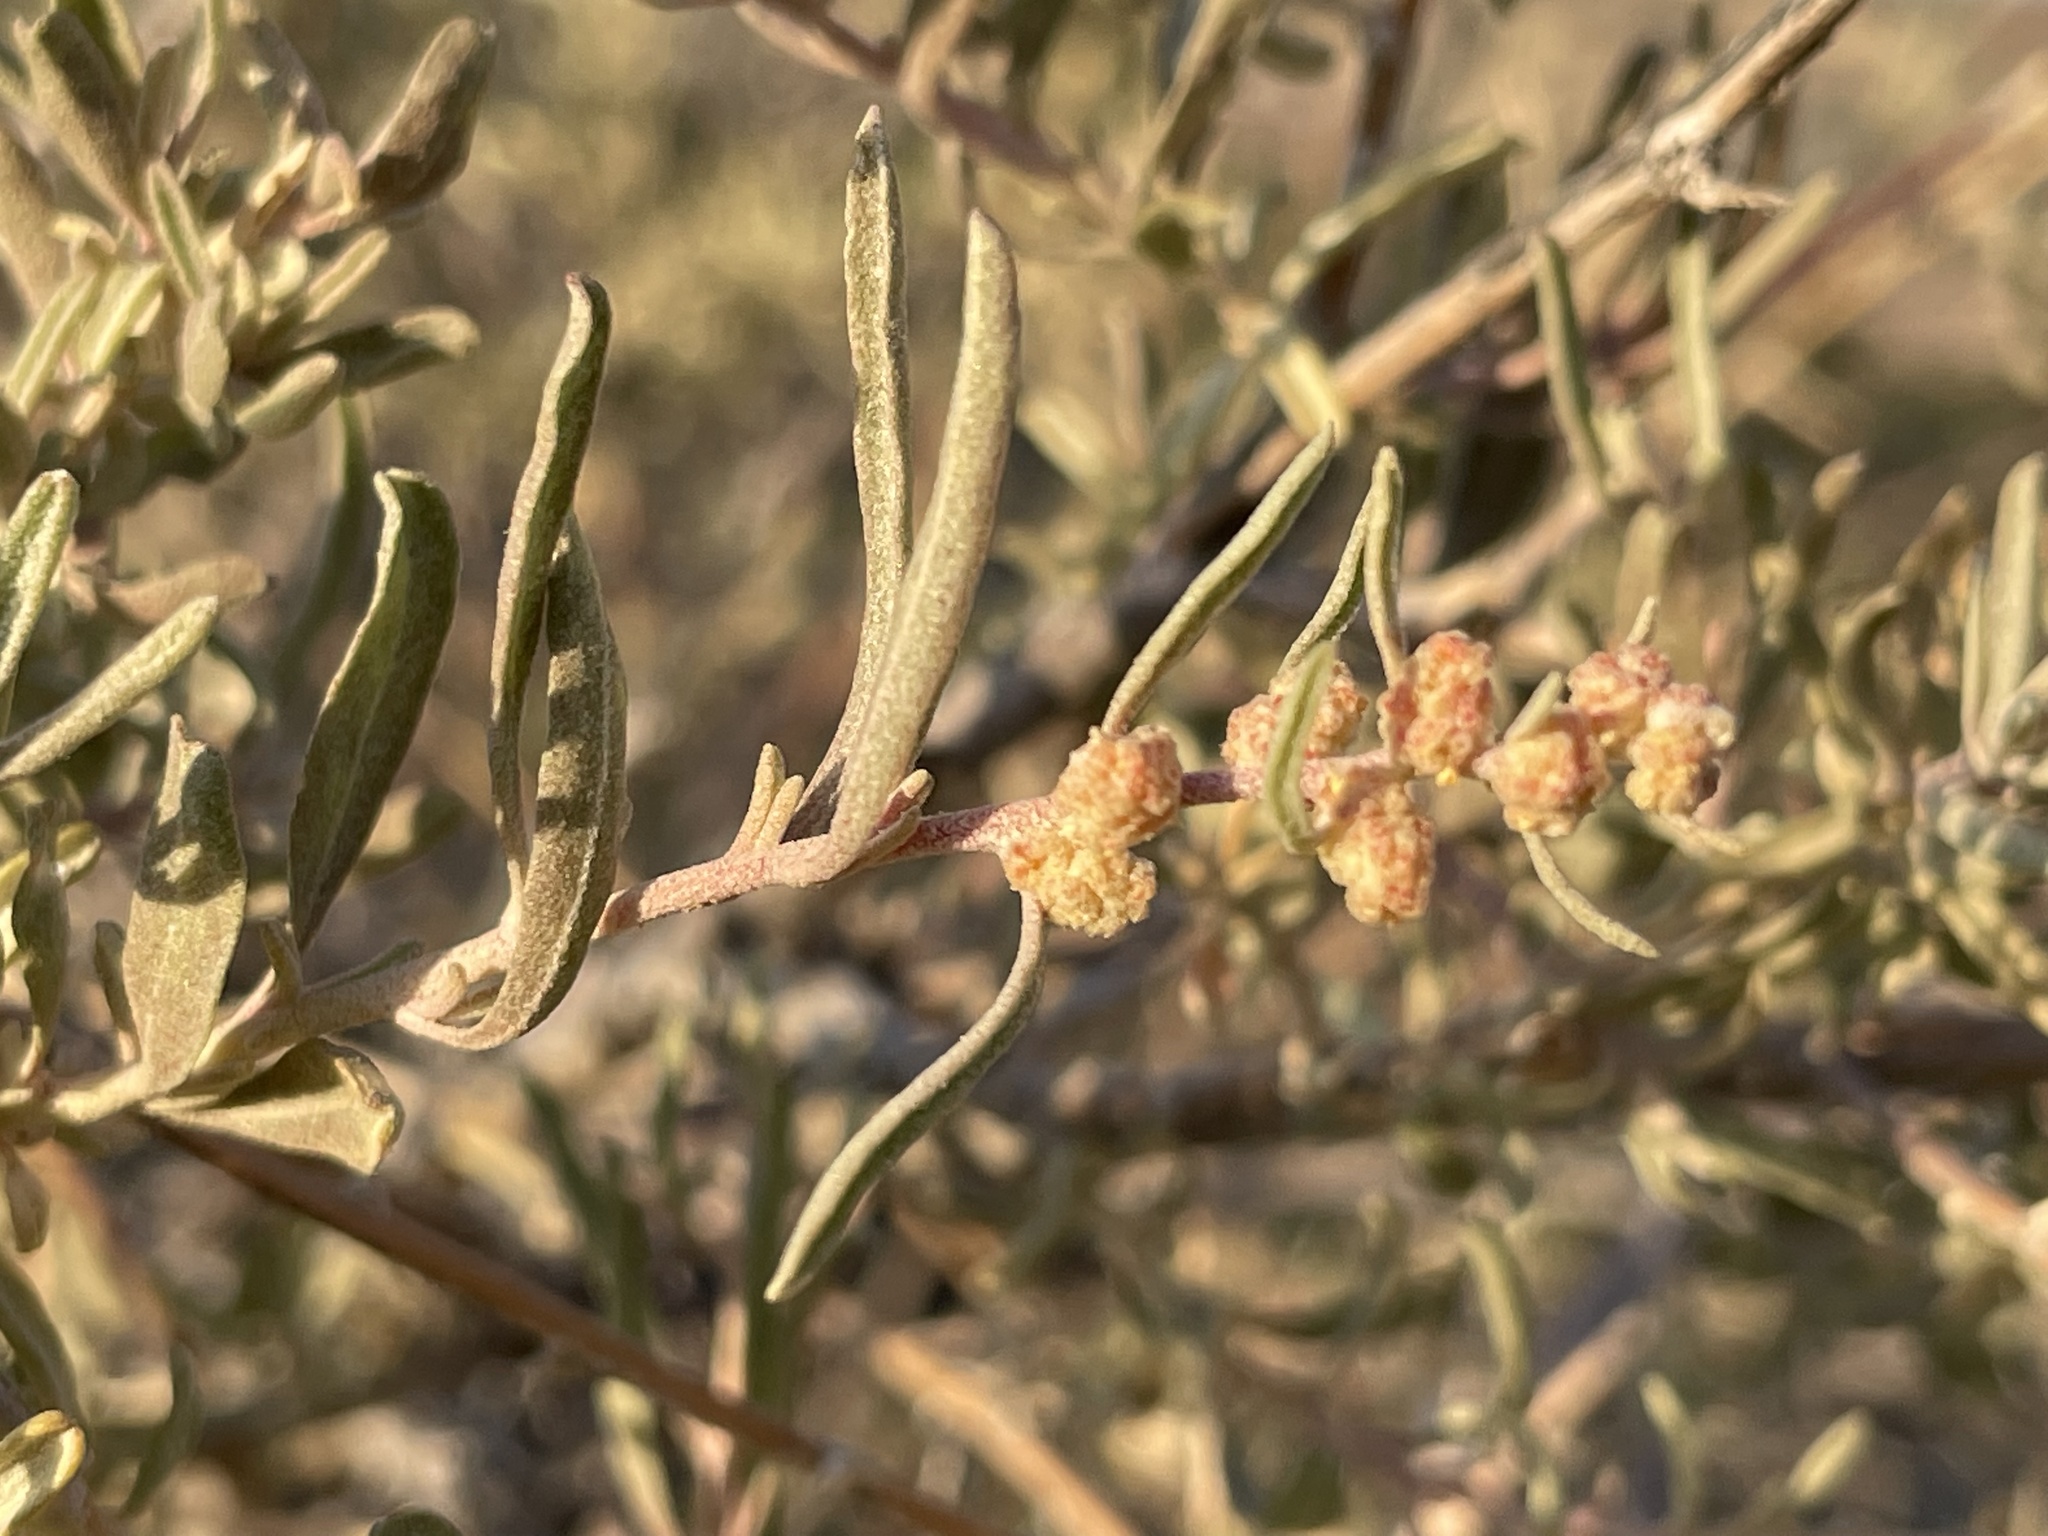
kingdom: Plantae
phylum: Tracheophyta
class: Magnoliopsida
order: Caryophyllales
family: Amaranthaceae
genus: Atriplex
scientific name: Atriplex canescens
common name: Four-wing saltbush
